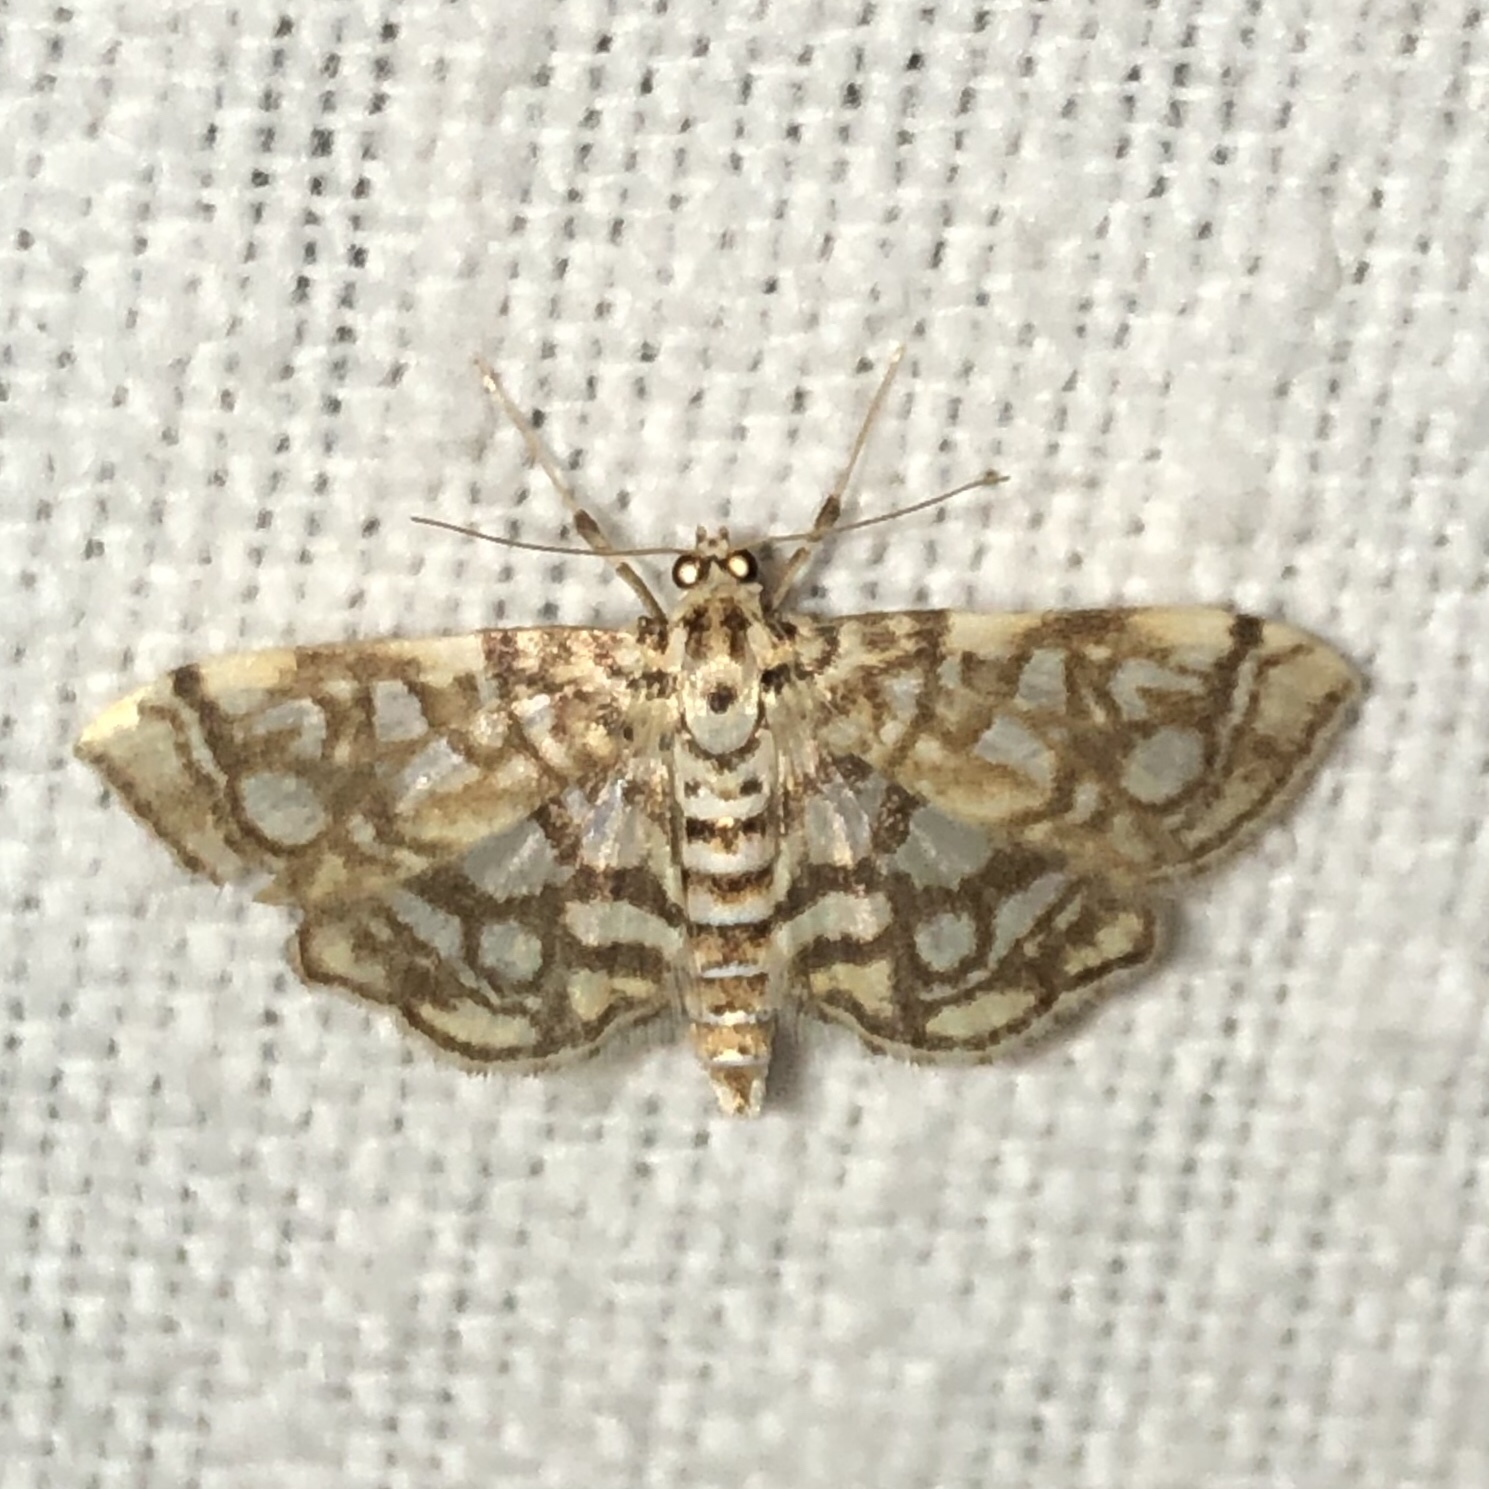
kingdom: Animalia
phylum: Arthropoda
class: Insecta
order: Lepidoptera
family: Crambidae
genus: Lygropia
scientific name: Lygropia rivulalis
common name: Bog lygropia moth
